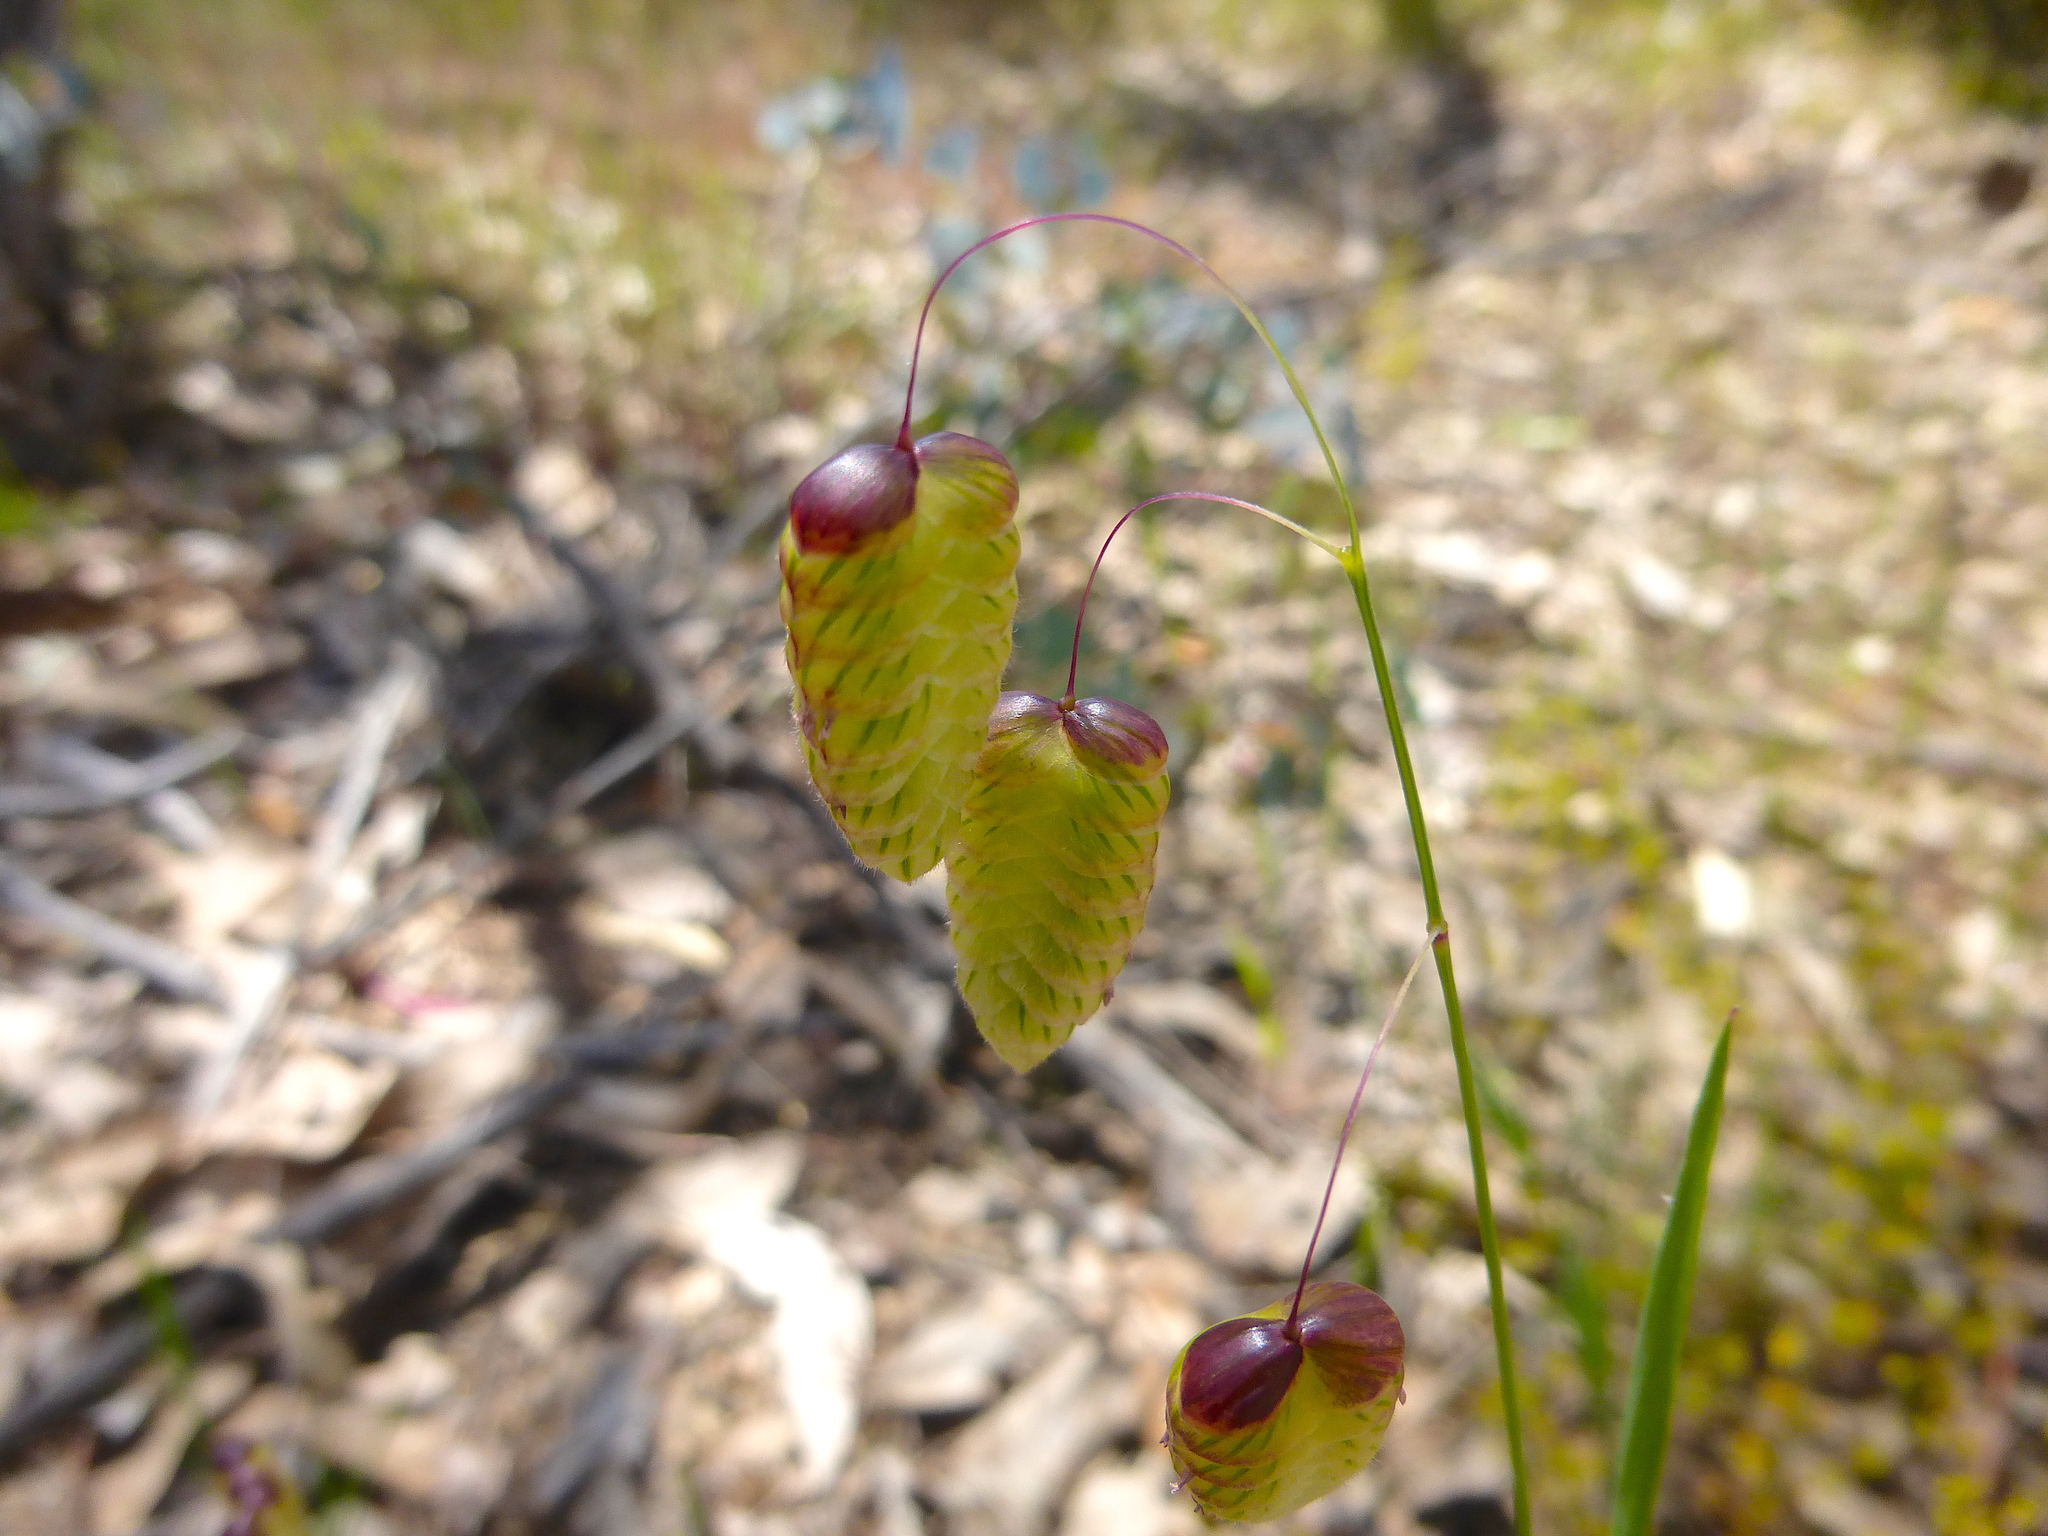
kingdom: Plantae
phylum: Tracheophyta
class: Liliopsida
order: Poales
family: Poaceae
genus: Briza
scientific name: Briza maxima
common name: Big quakinggrass
